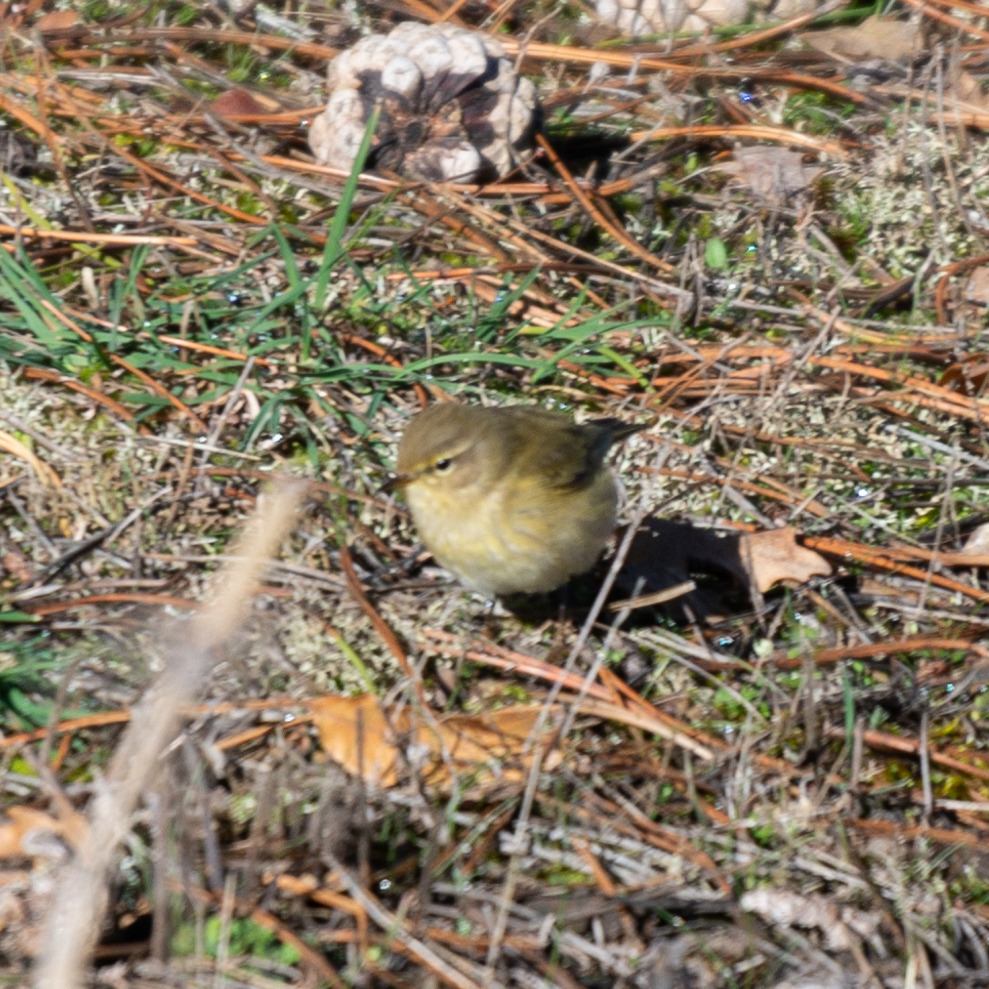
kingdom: Animalia
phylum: Chordata
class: Aves
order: Passeriformes
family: Phylloscopidae
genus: Phylloscopus
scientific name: Phylloscopus collybita
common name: Common chiffchaff
